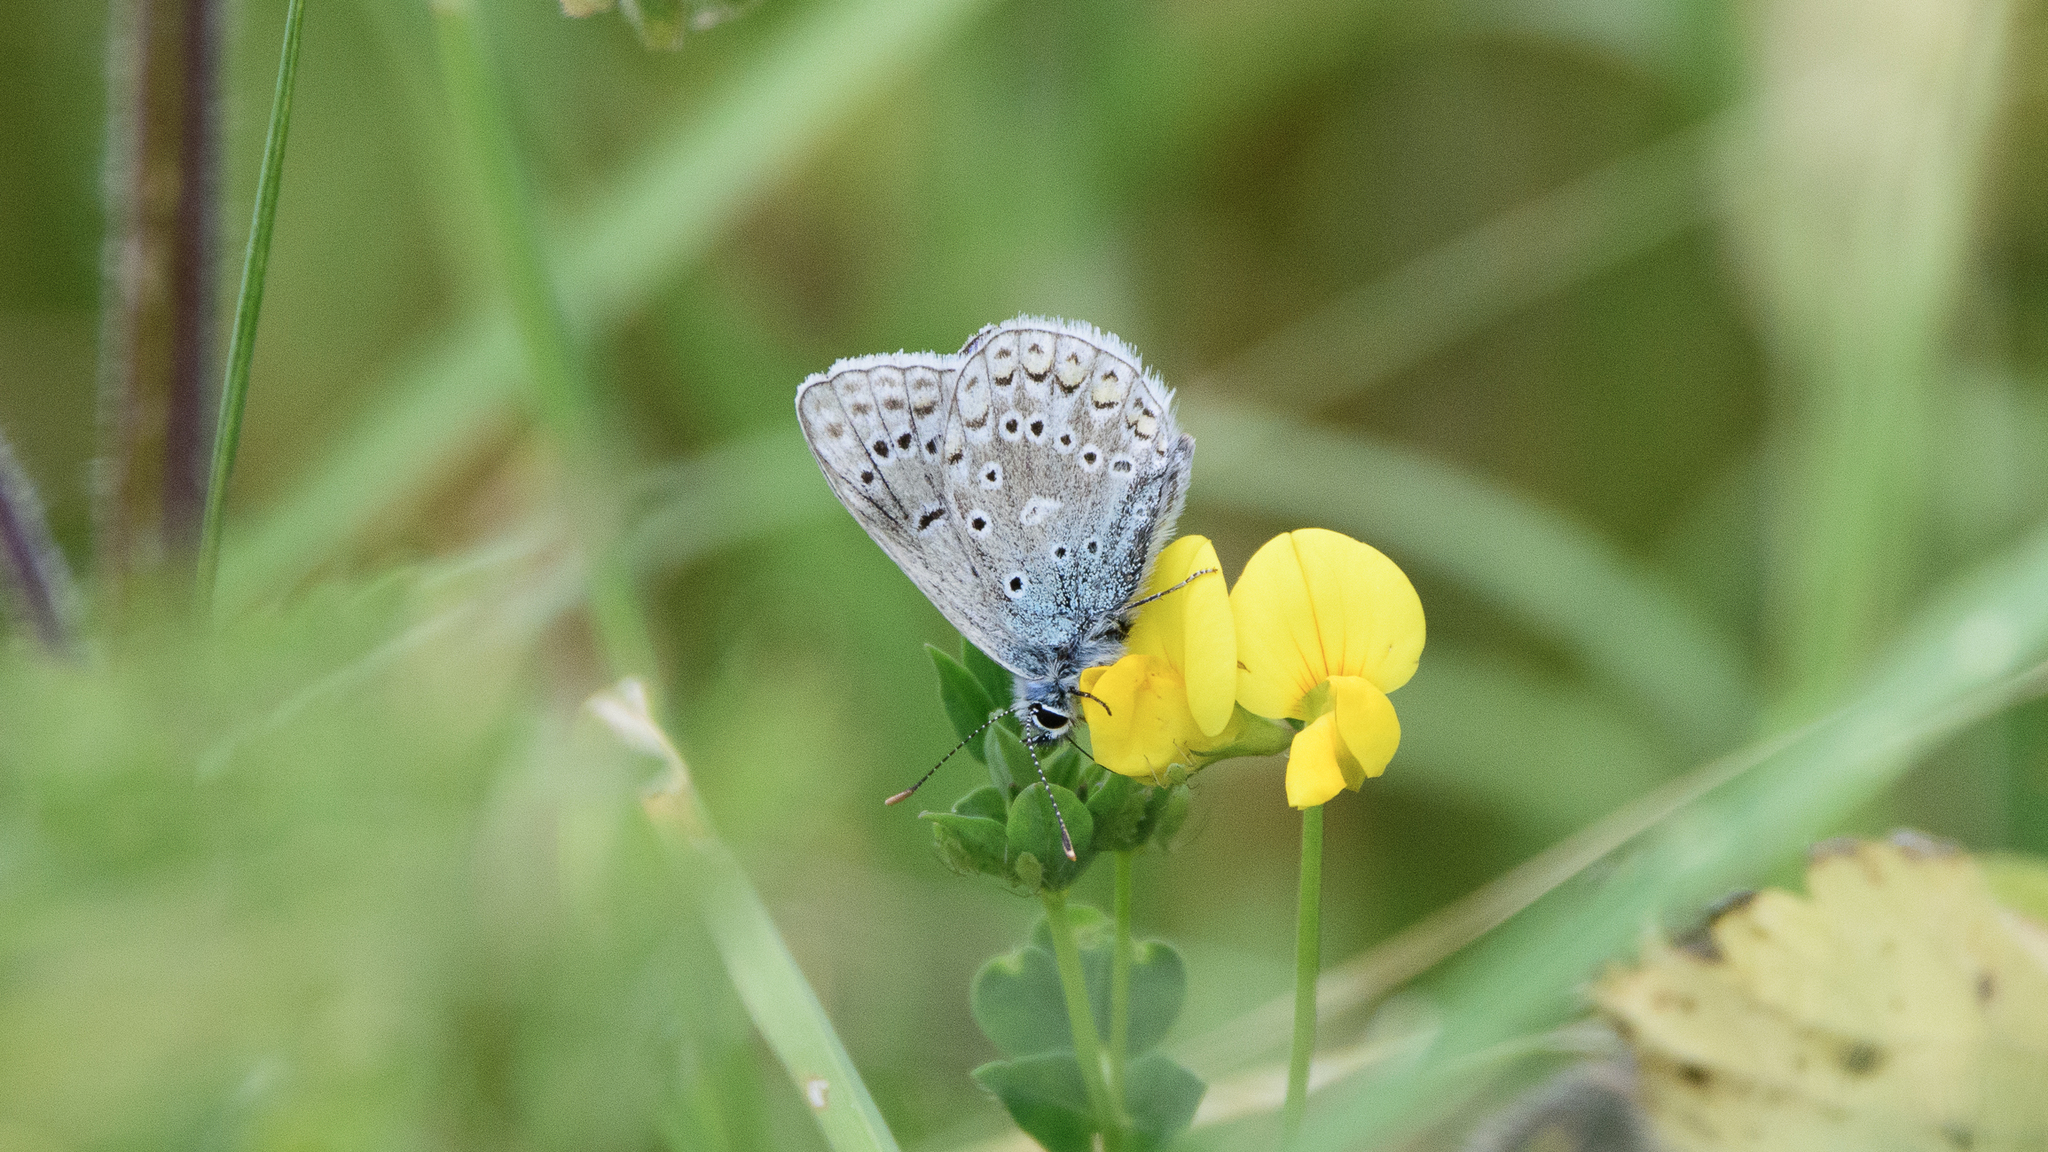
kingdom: Animalia
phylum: Arthropoda
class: Insecta
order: Lepidoptera
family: Lycaenidae
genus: Polyommatus
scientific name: Polyommatus icarus
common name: Common blue
